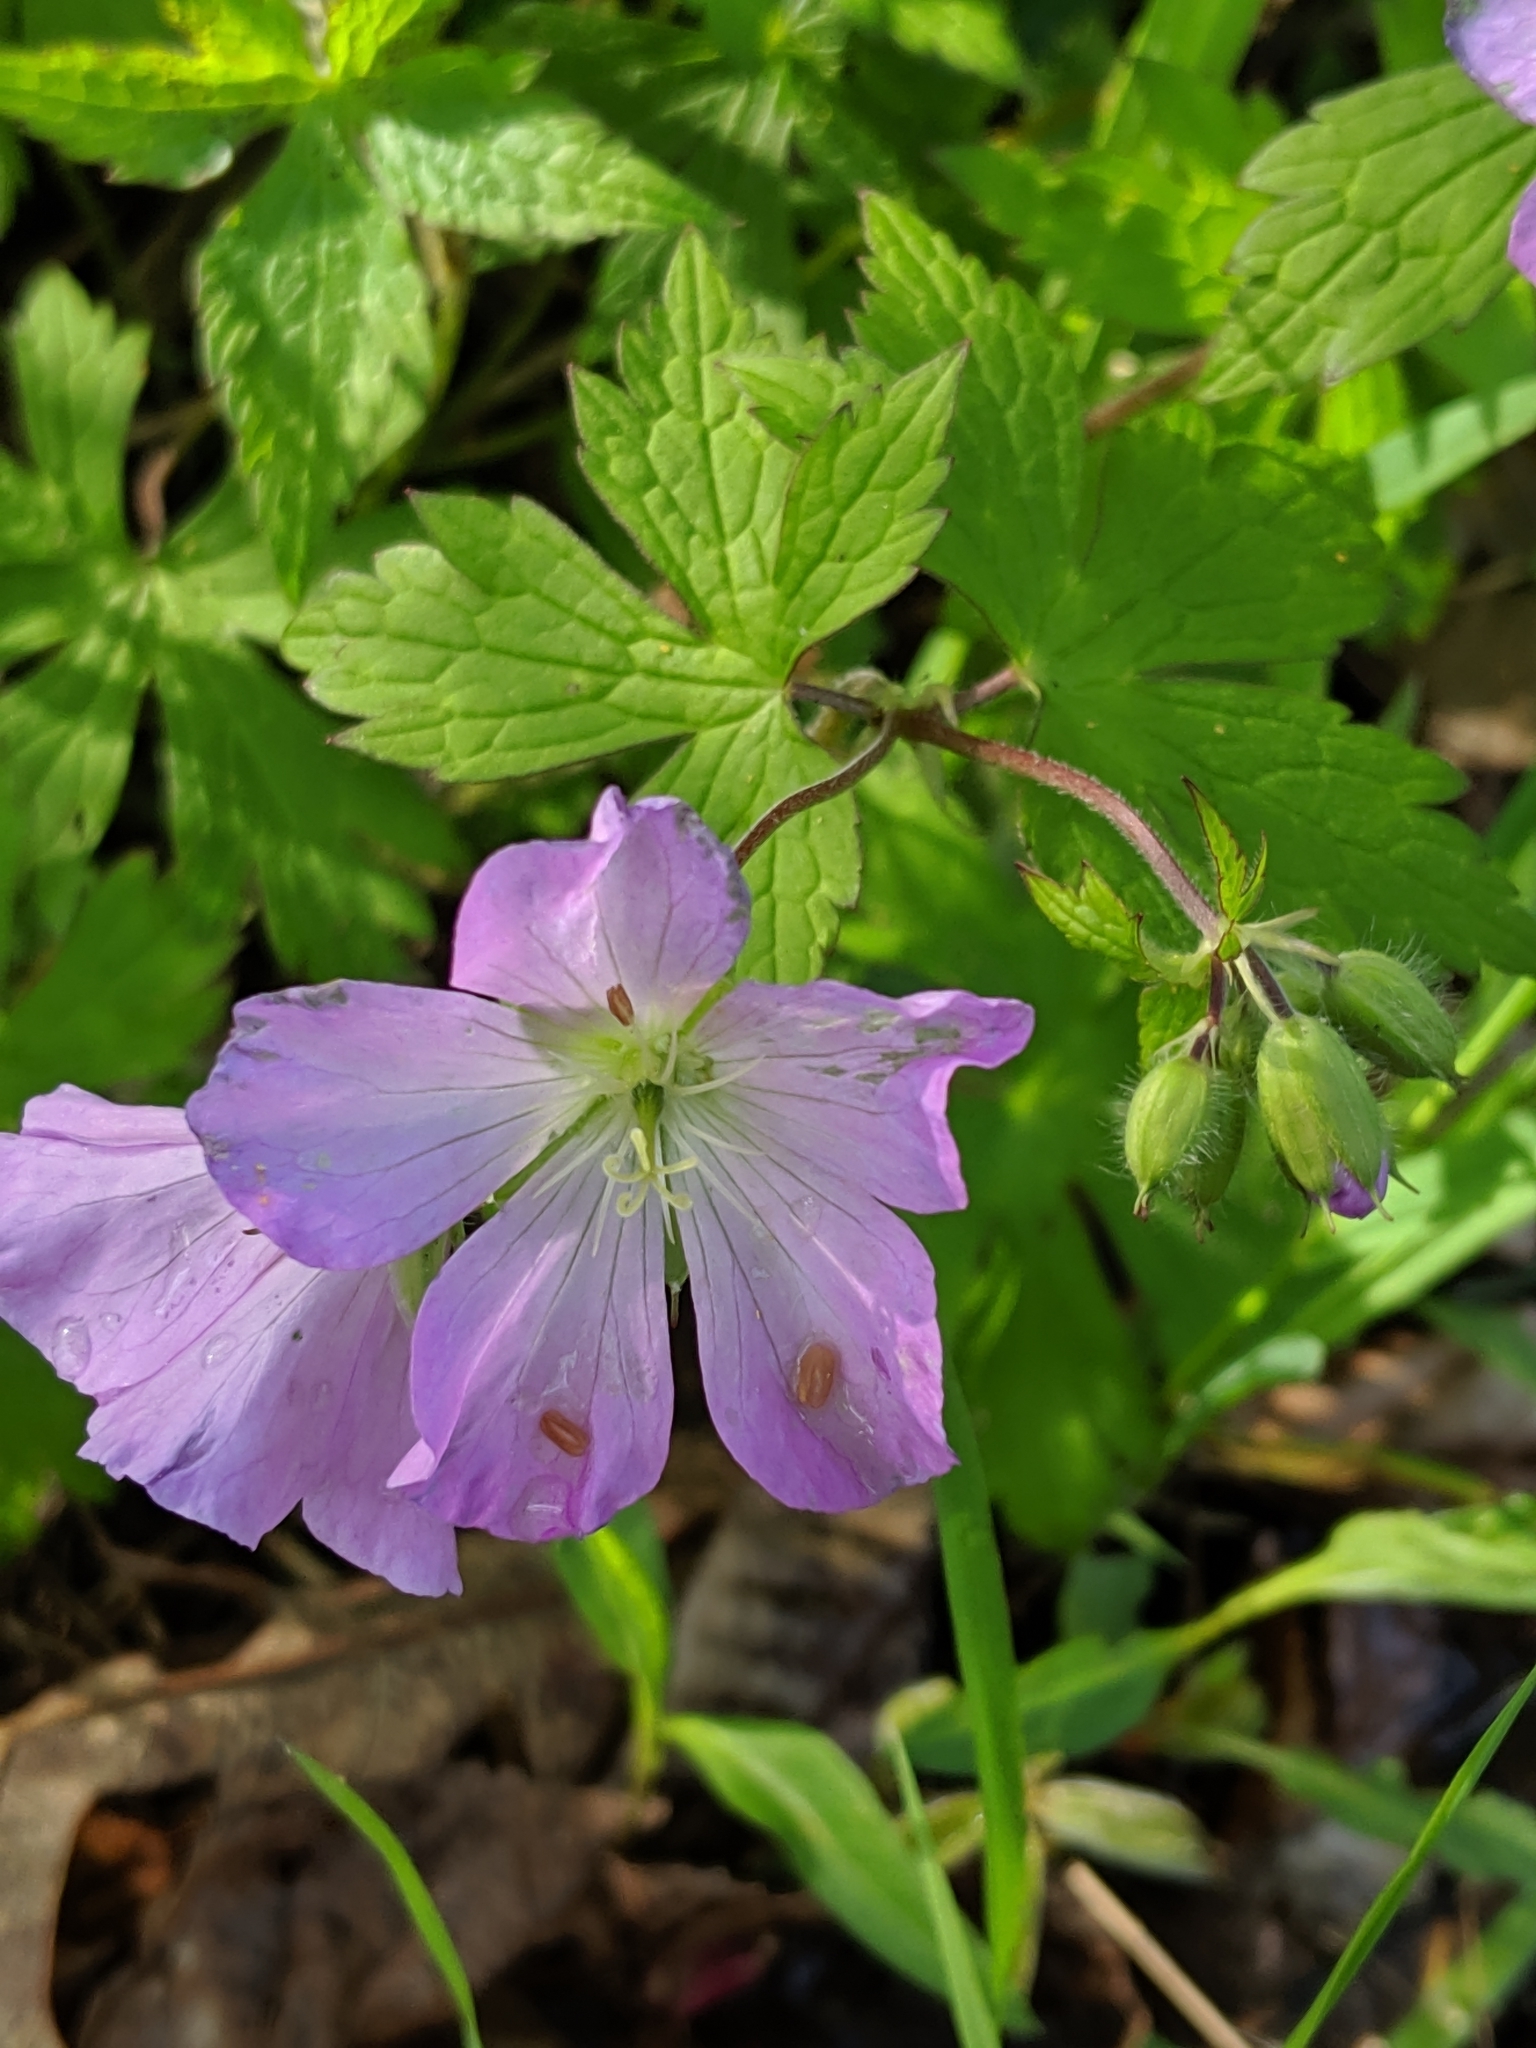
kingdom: Plantae
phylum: Tracheophyta
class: Magnoliopsida
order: Geraniales
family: Geraniaceae
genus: Geranium
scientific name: Geranium maculatum
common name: Spotted geranium
